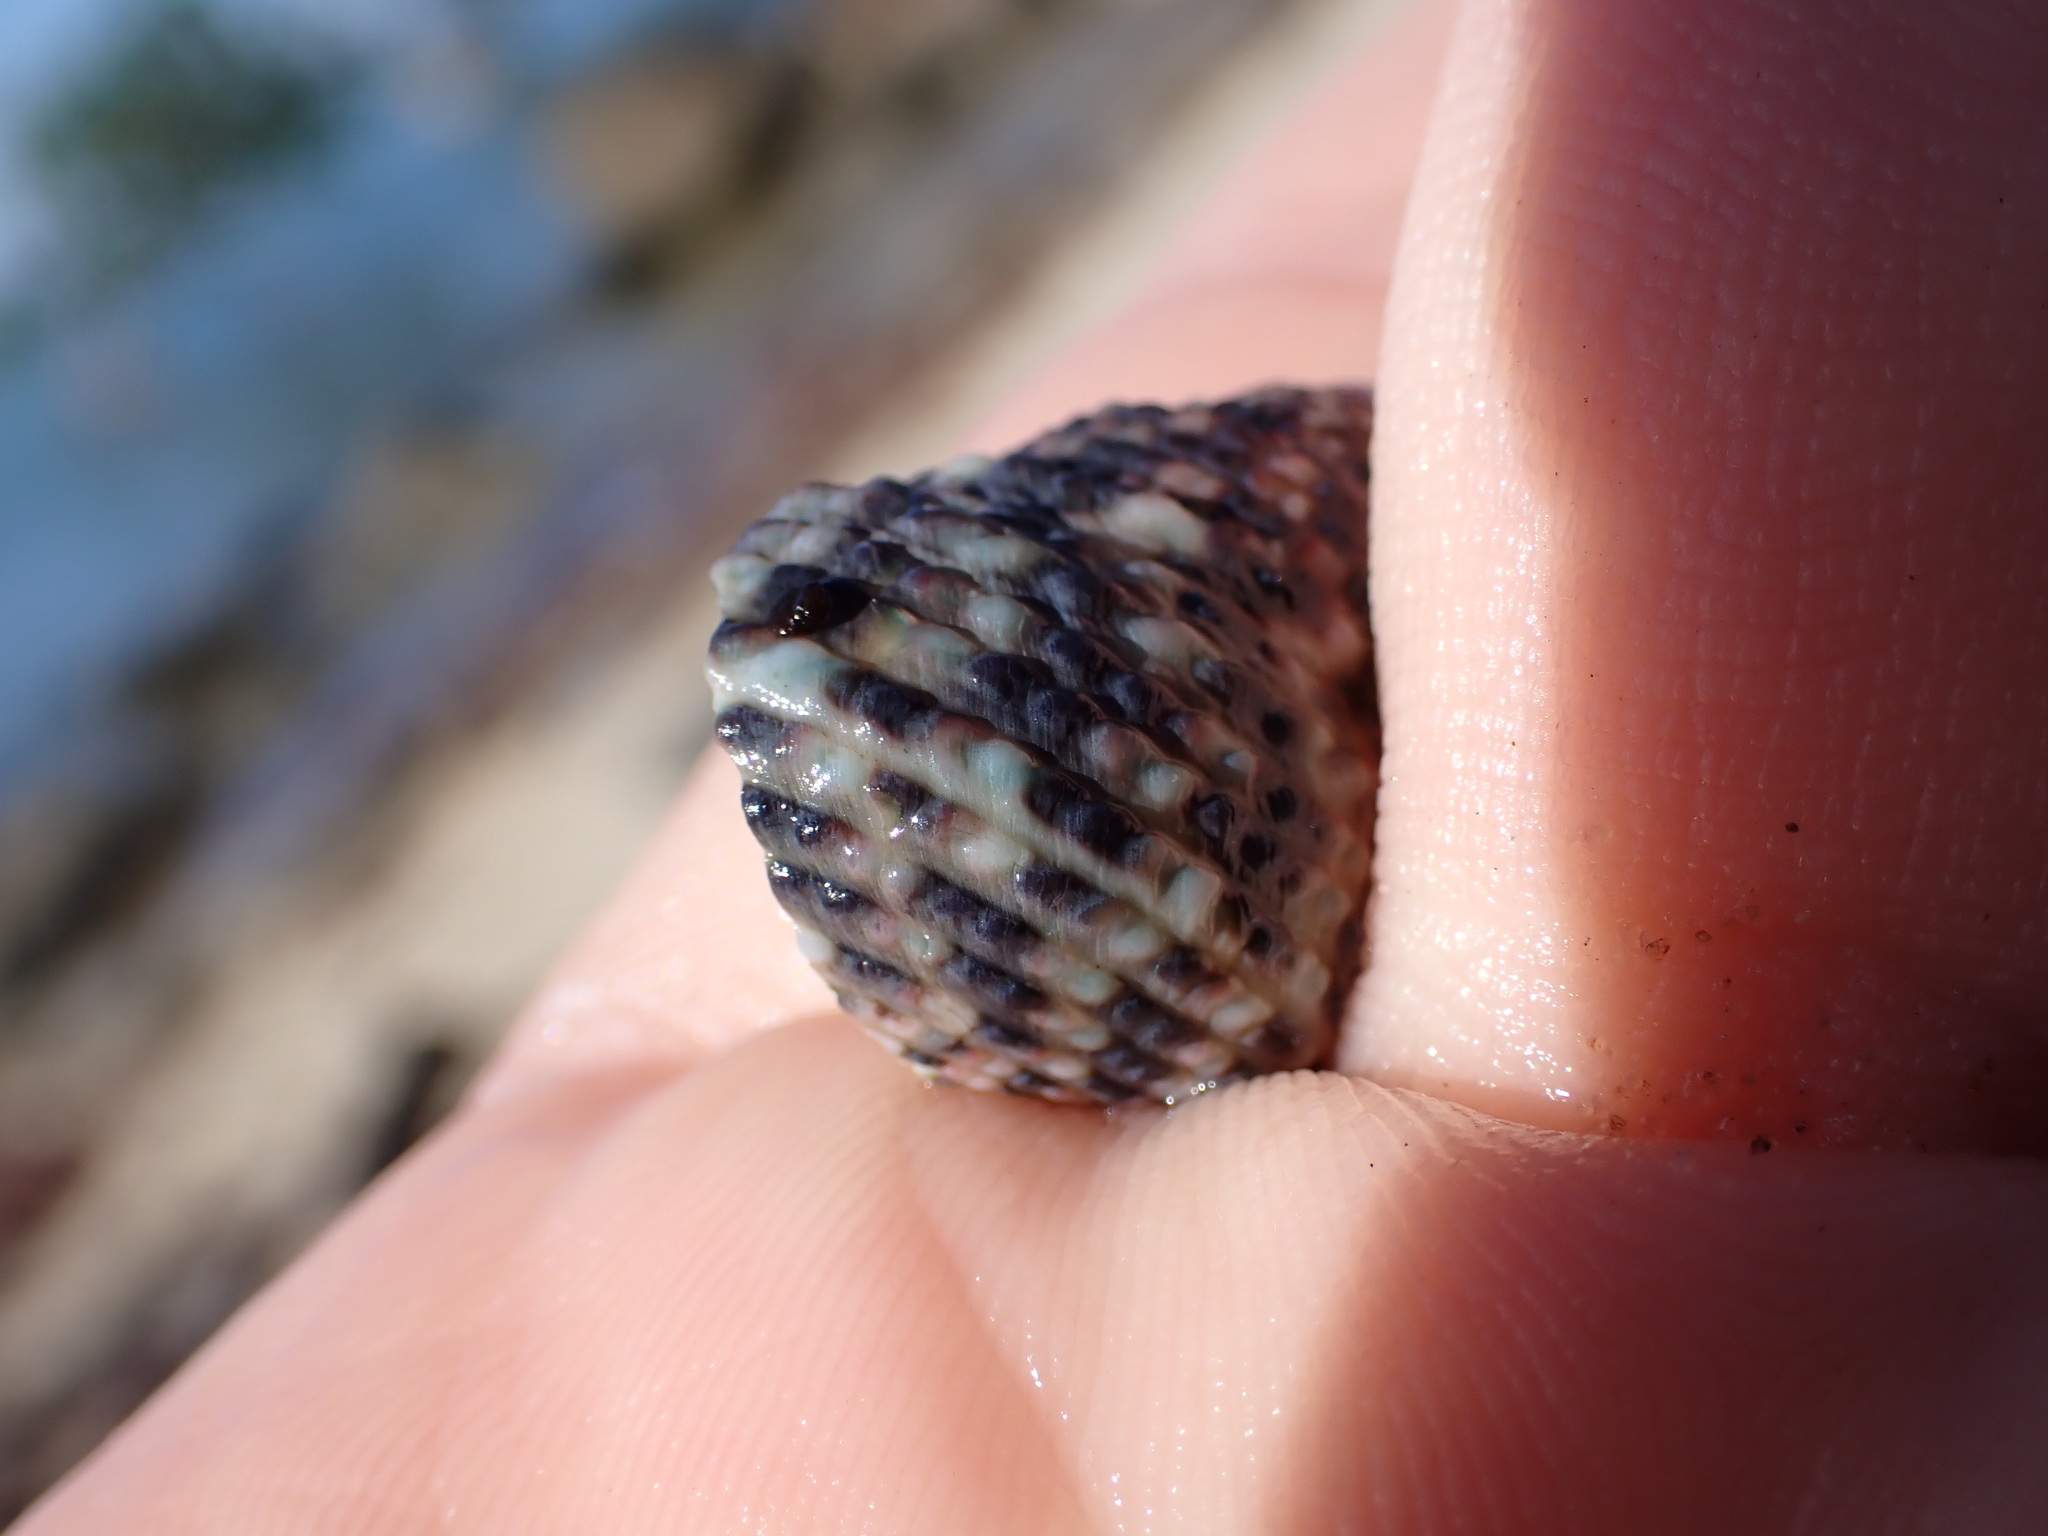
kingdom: Animalia
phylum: Mollusca
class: Gastropoda
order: Trochida
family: Trochidae
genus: Monodonta
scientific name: Monodonta labio
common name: Labio
